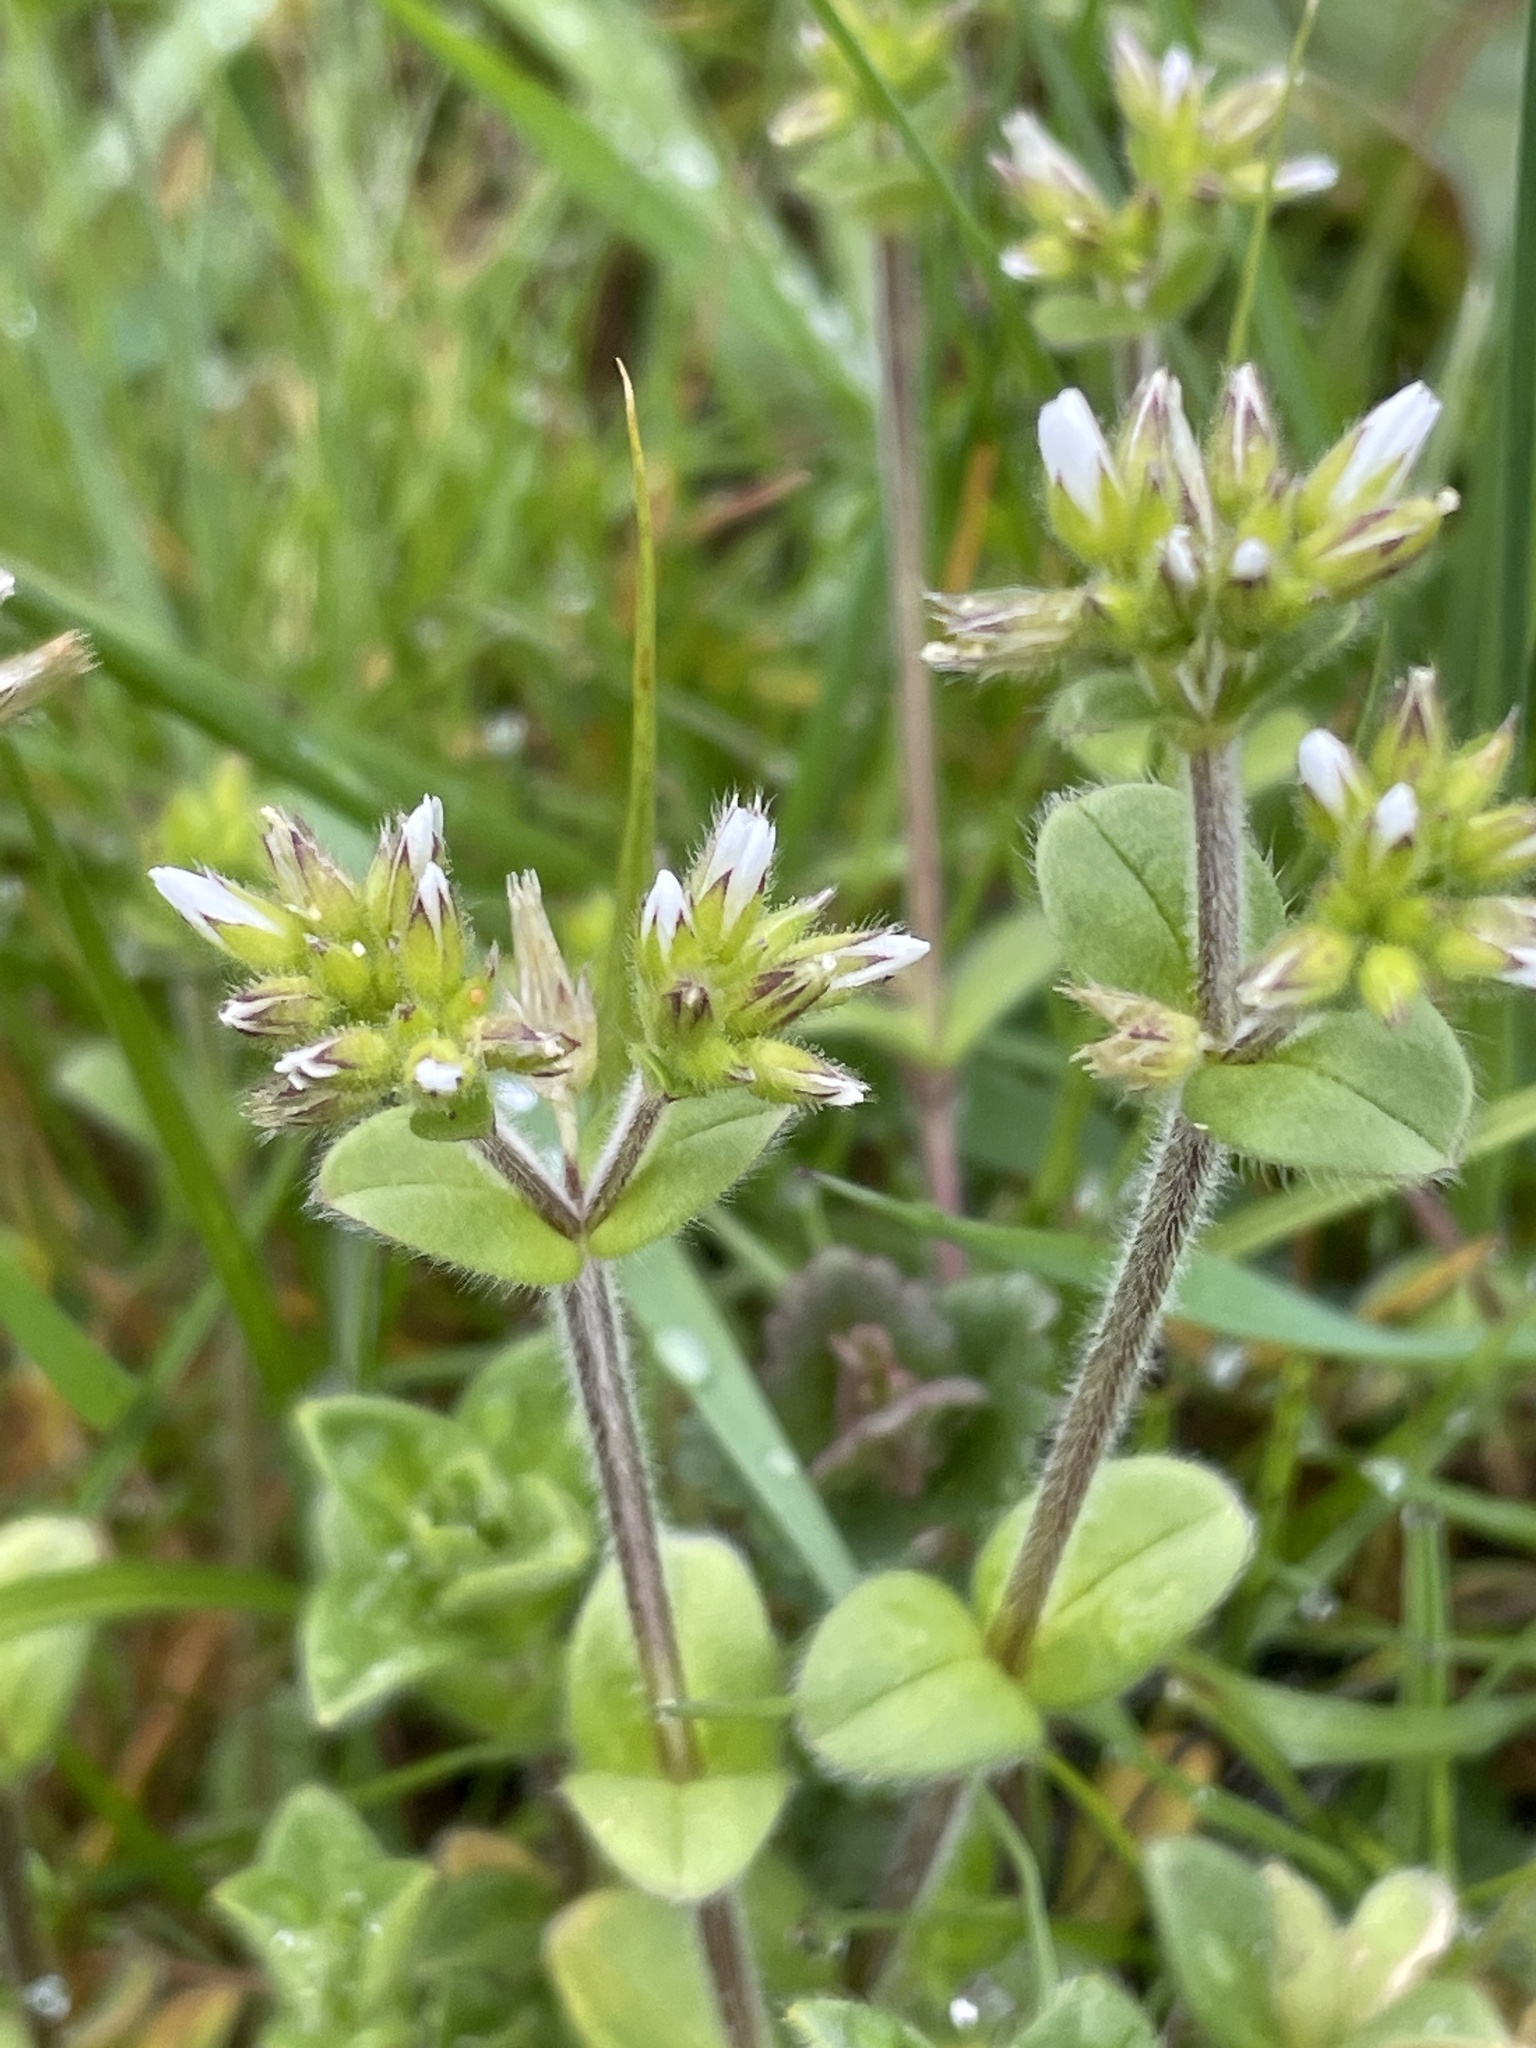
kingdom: Plantae
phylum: Tracheophyta
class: Magnoliopsida
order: Caryophyllales
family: Caryophyllaceae
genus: Cerastium
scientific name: Cerastium glomeratum
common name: Sticky chickweed
